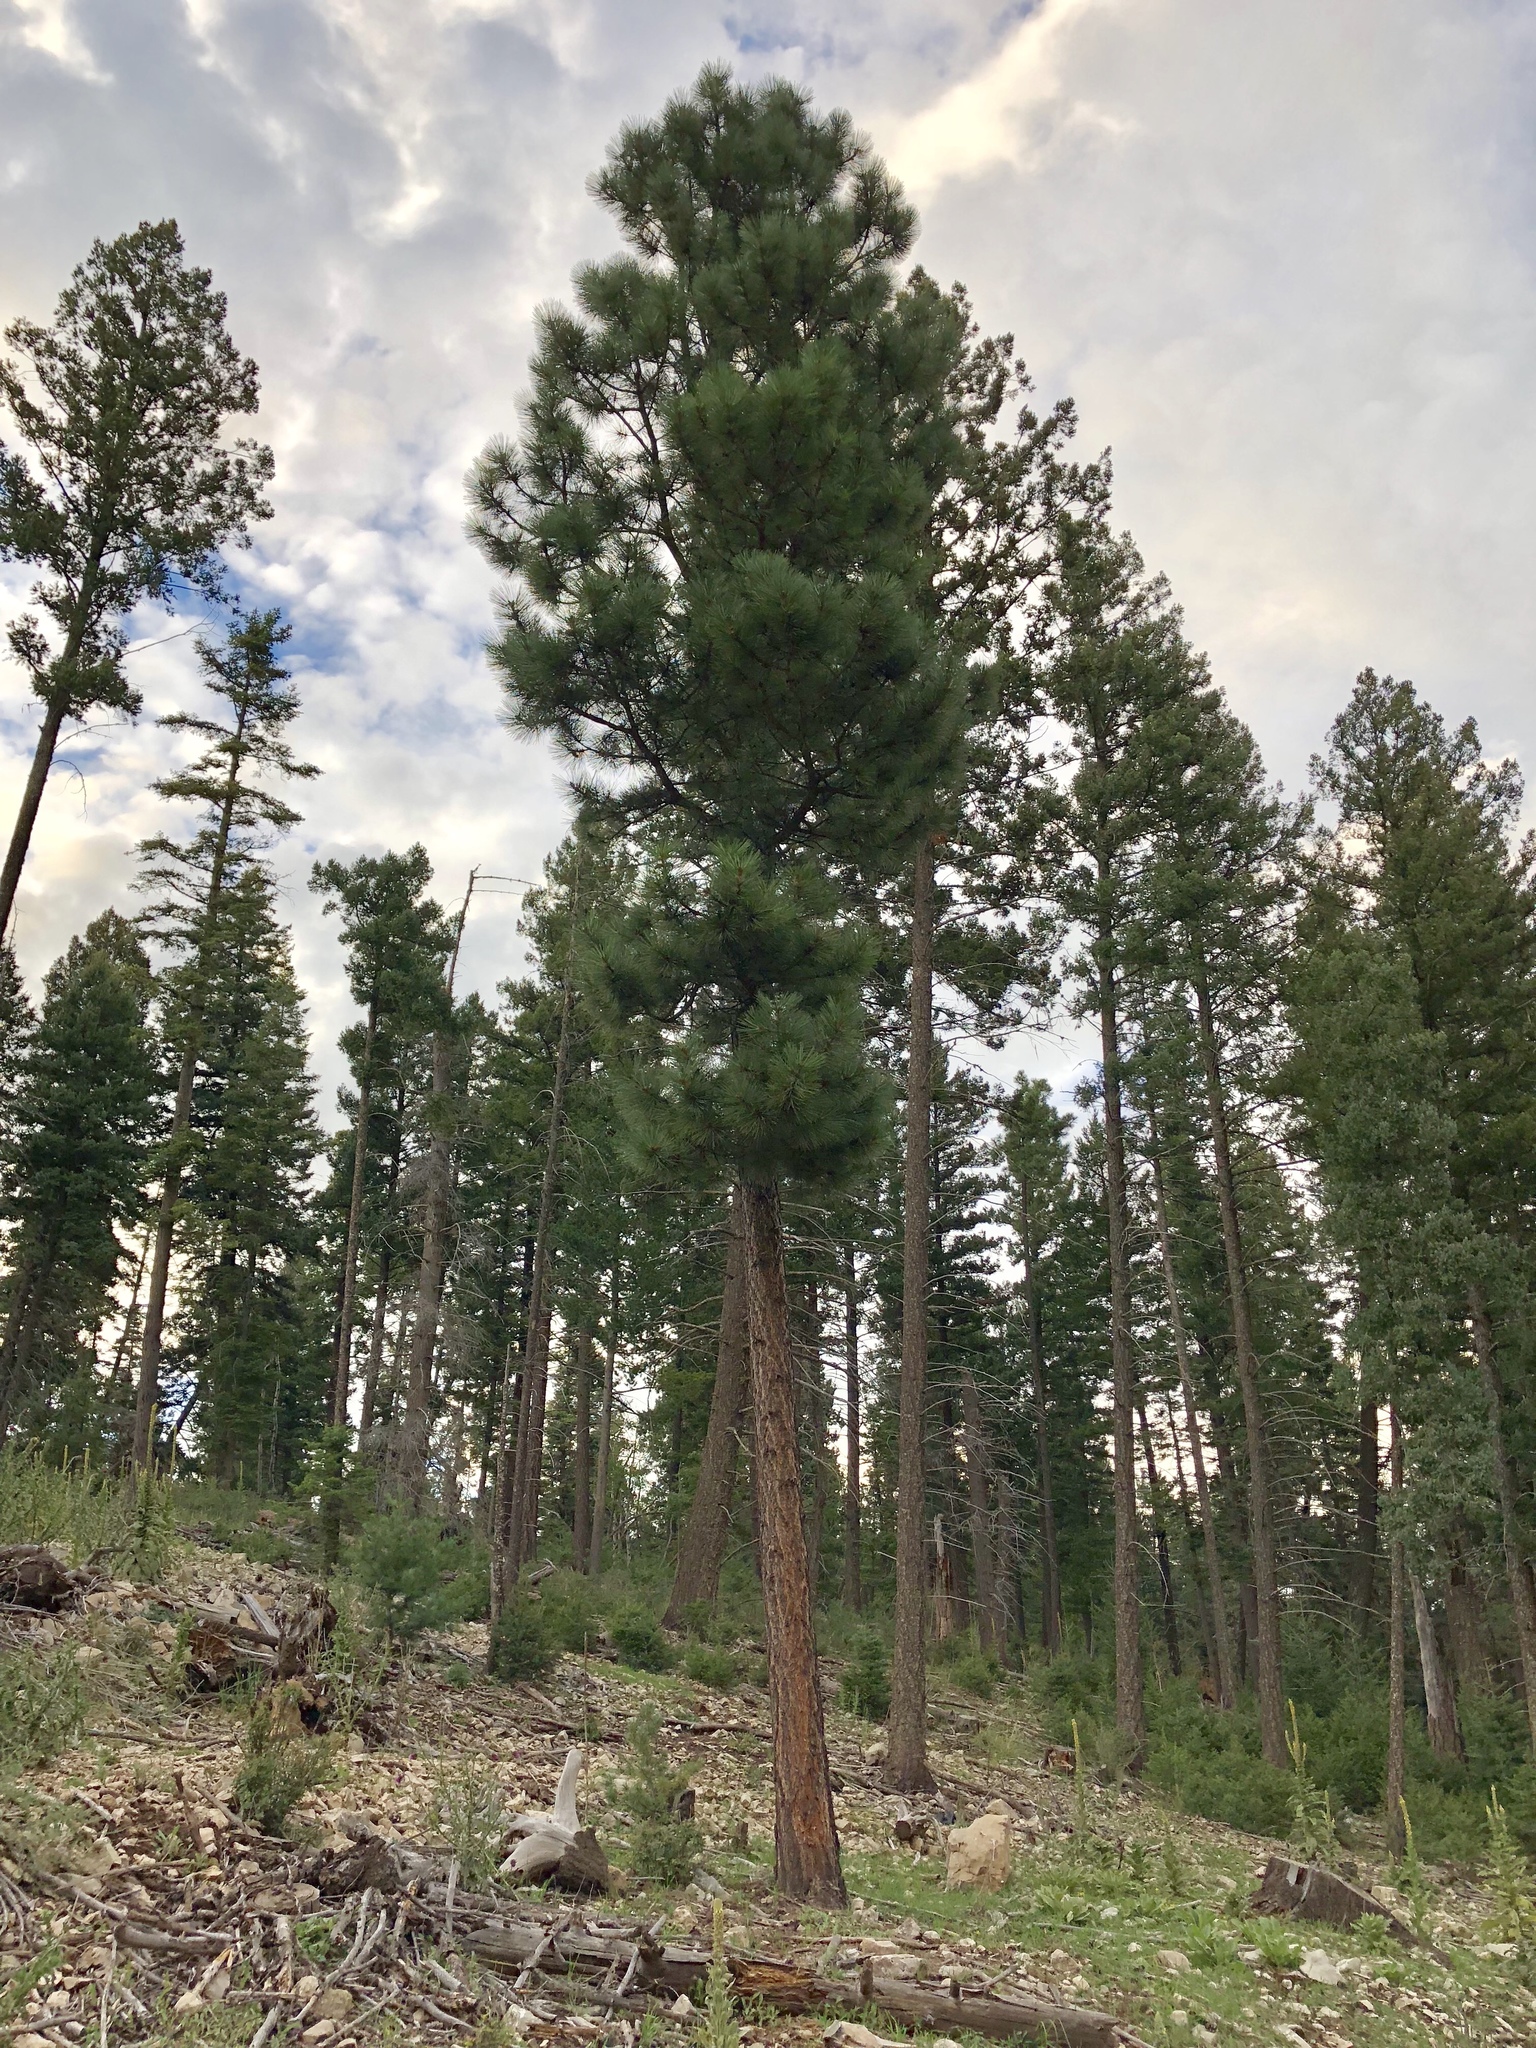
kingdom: Plantae
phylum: Tracheophyta
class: Pinopsida
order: Pinales
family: Pinaceae
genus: Pinus
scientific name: Pinus ponderosa
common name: Western yellow-pine
